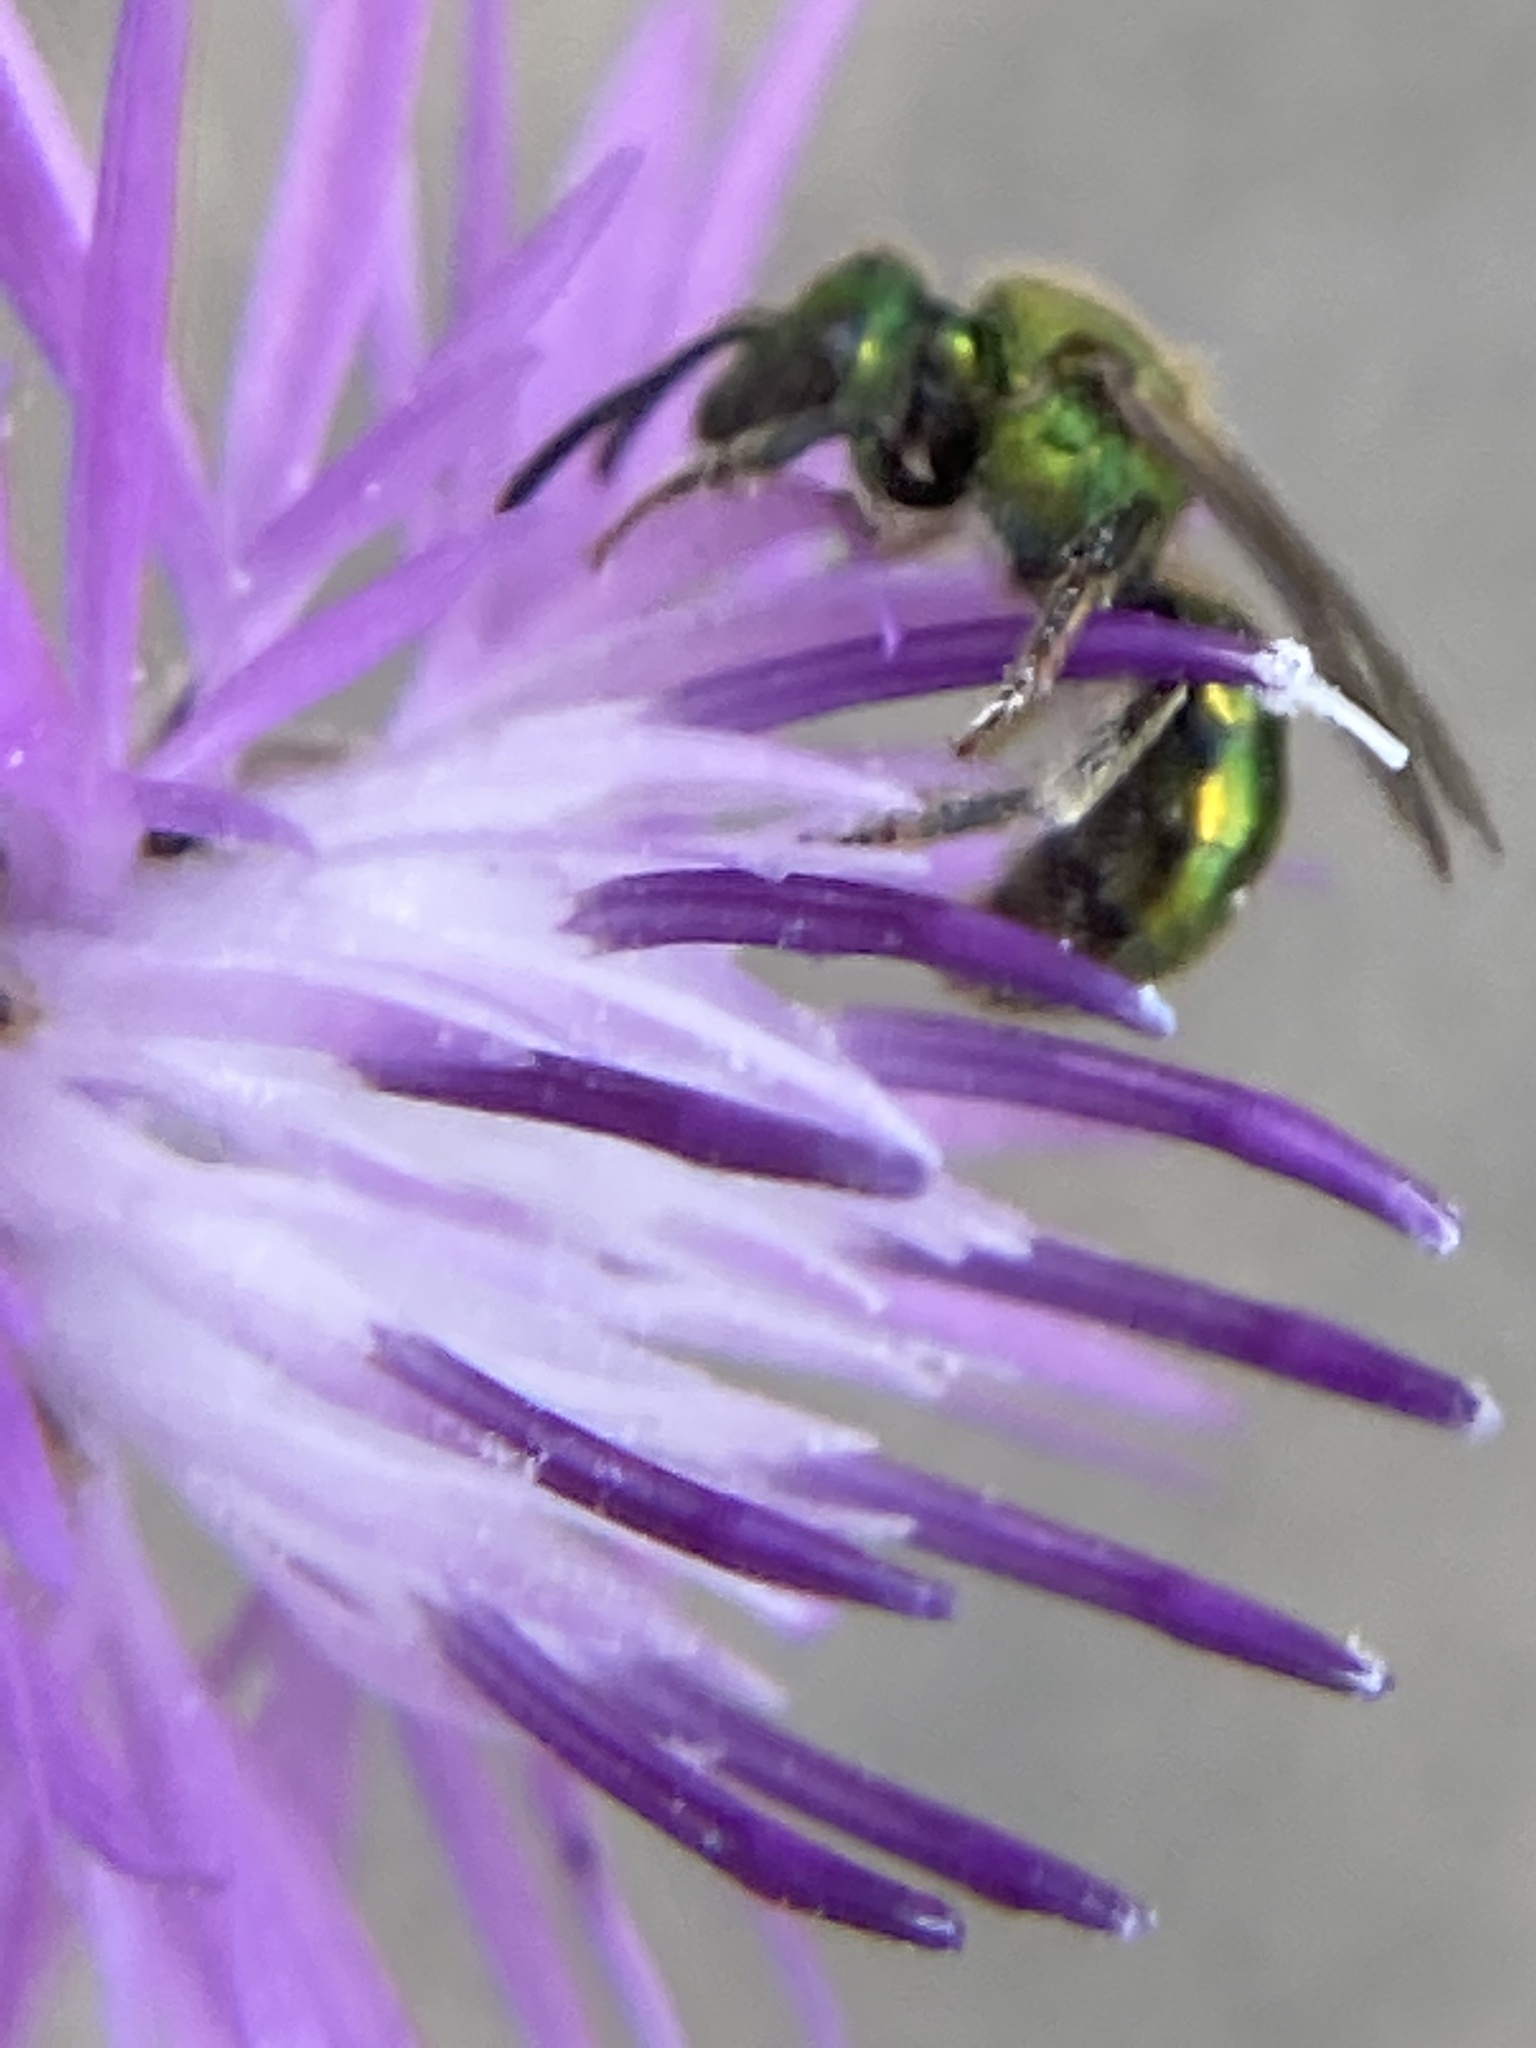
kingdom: Animalia
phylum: Arthropoda
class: Insecta
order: Hymenoptera
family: Halictidae
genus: Augochlorella
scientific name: Augochlorella aurata
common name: Golden sweat bee
